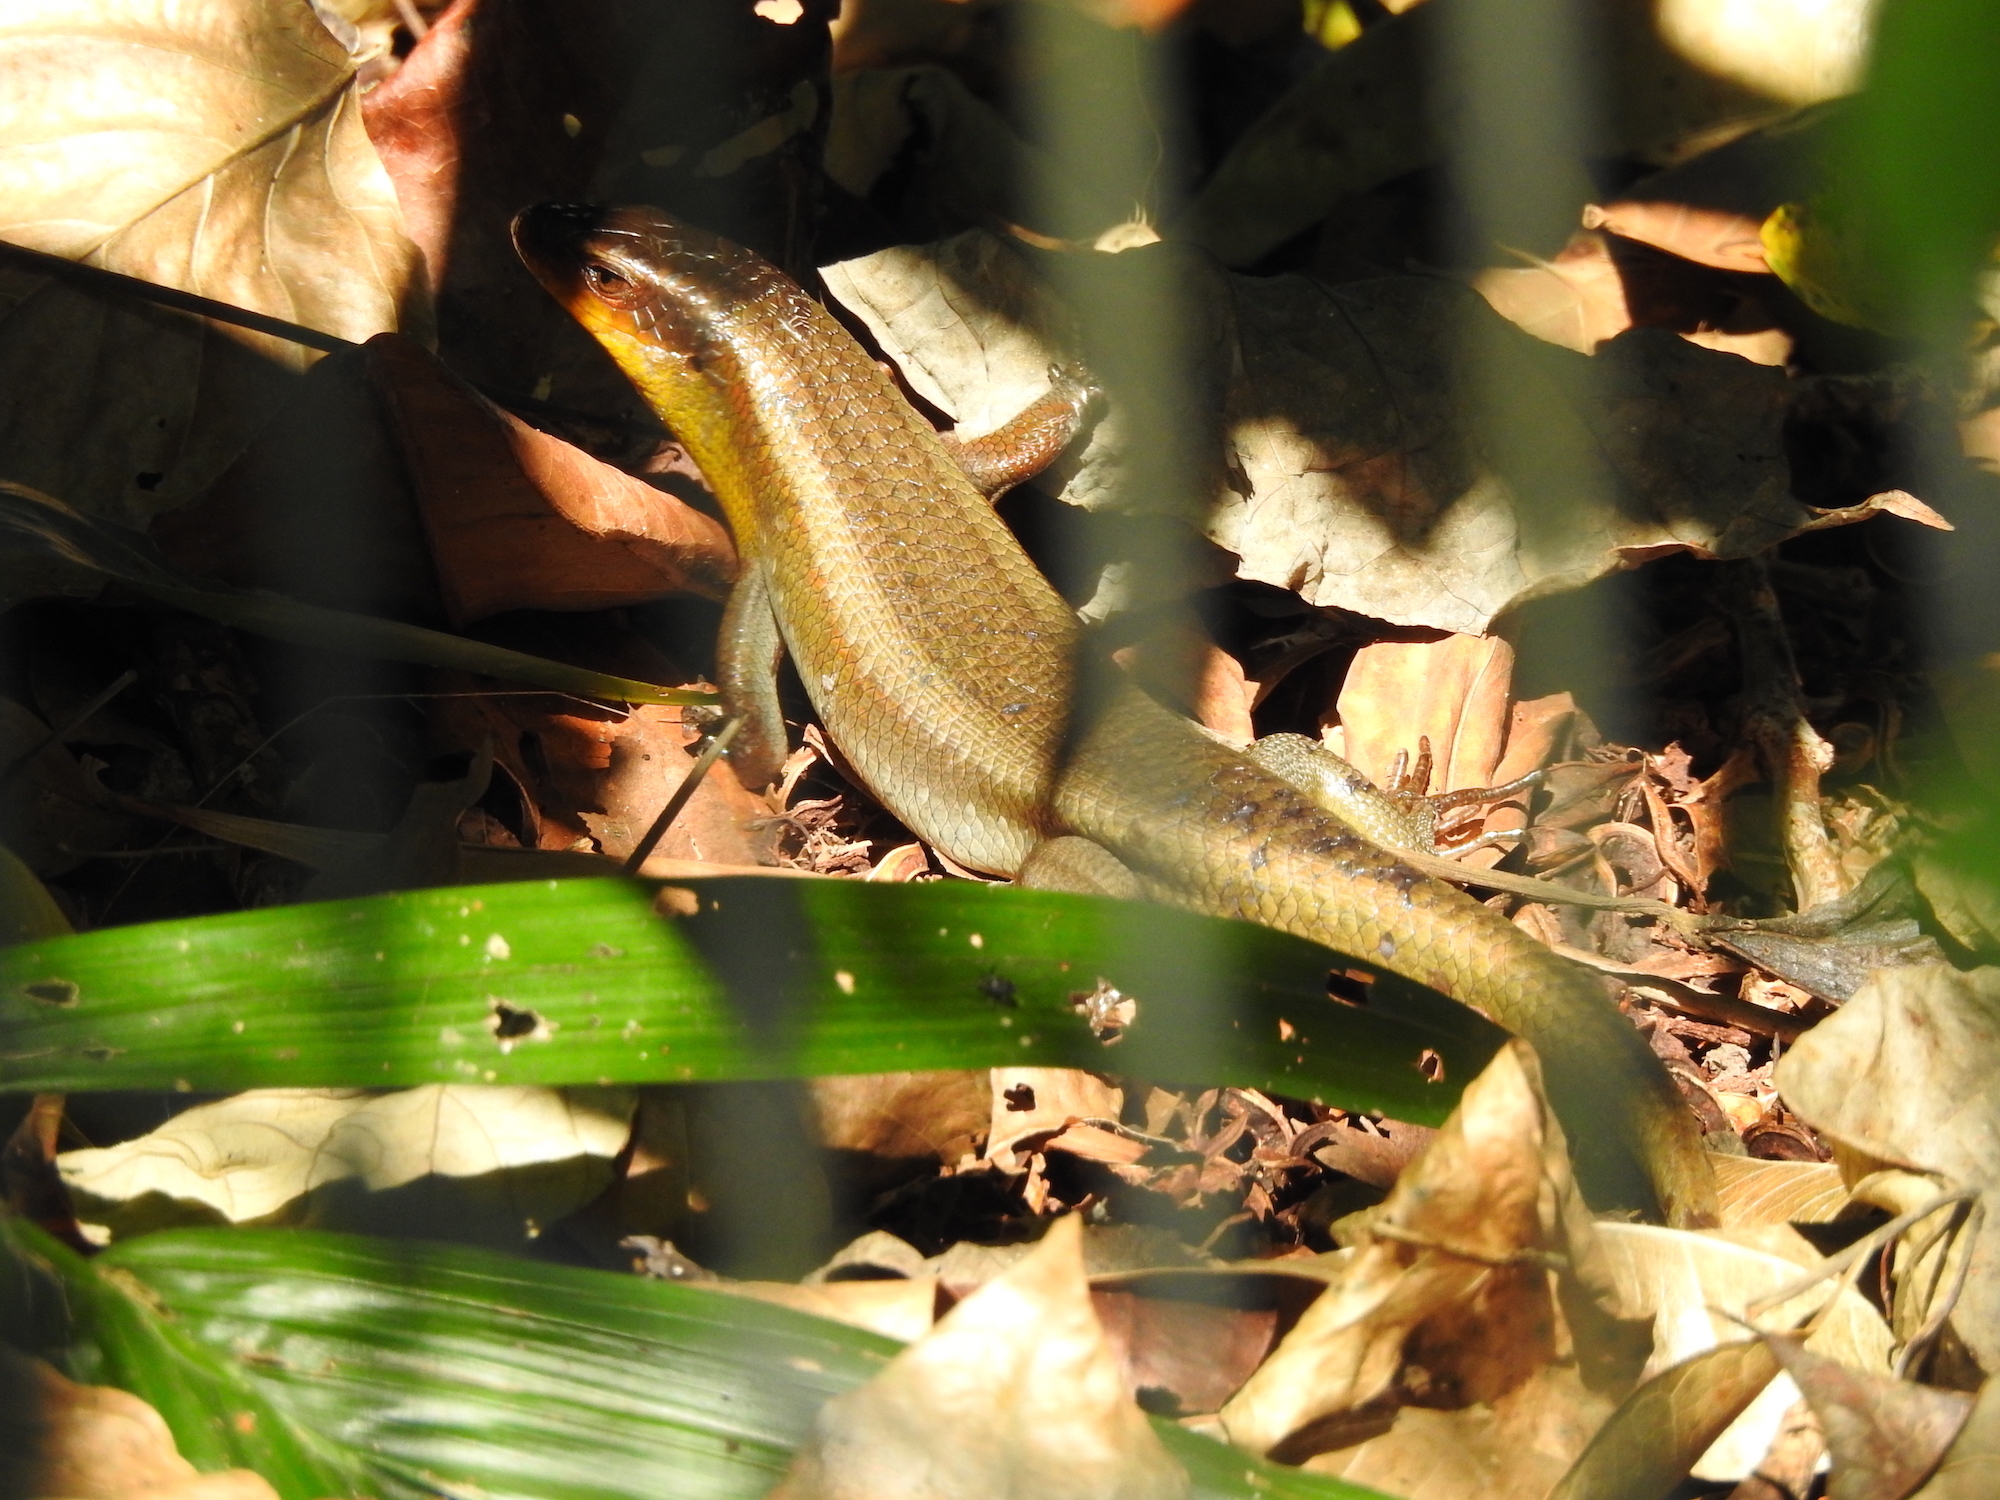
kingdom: Animalia
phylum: Chordata
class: Squamata
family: Scincidae
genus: Eutropis
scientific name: Eutropis multifasciata
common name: Common mabuya
